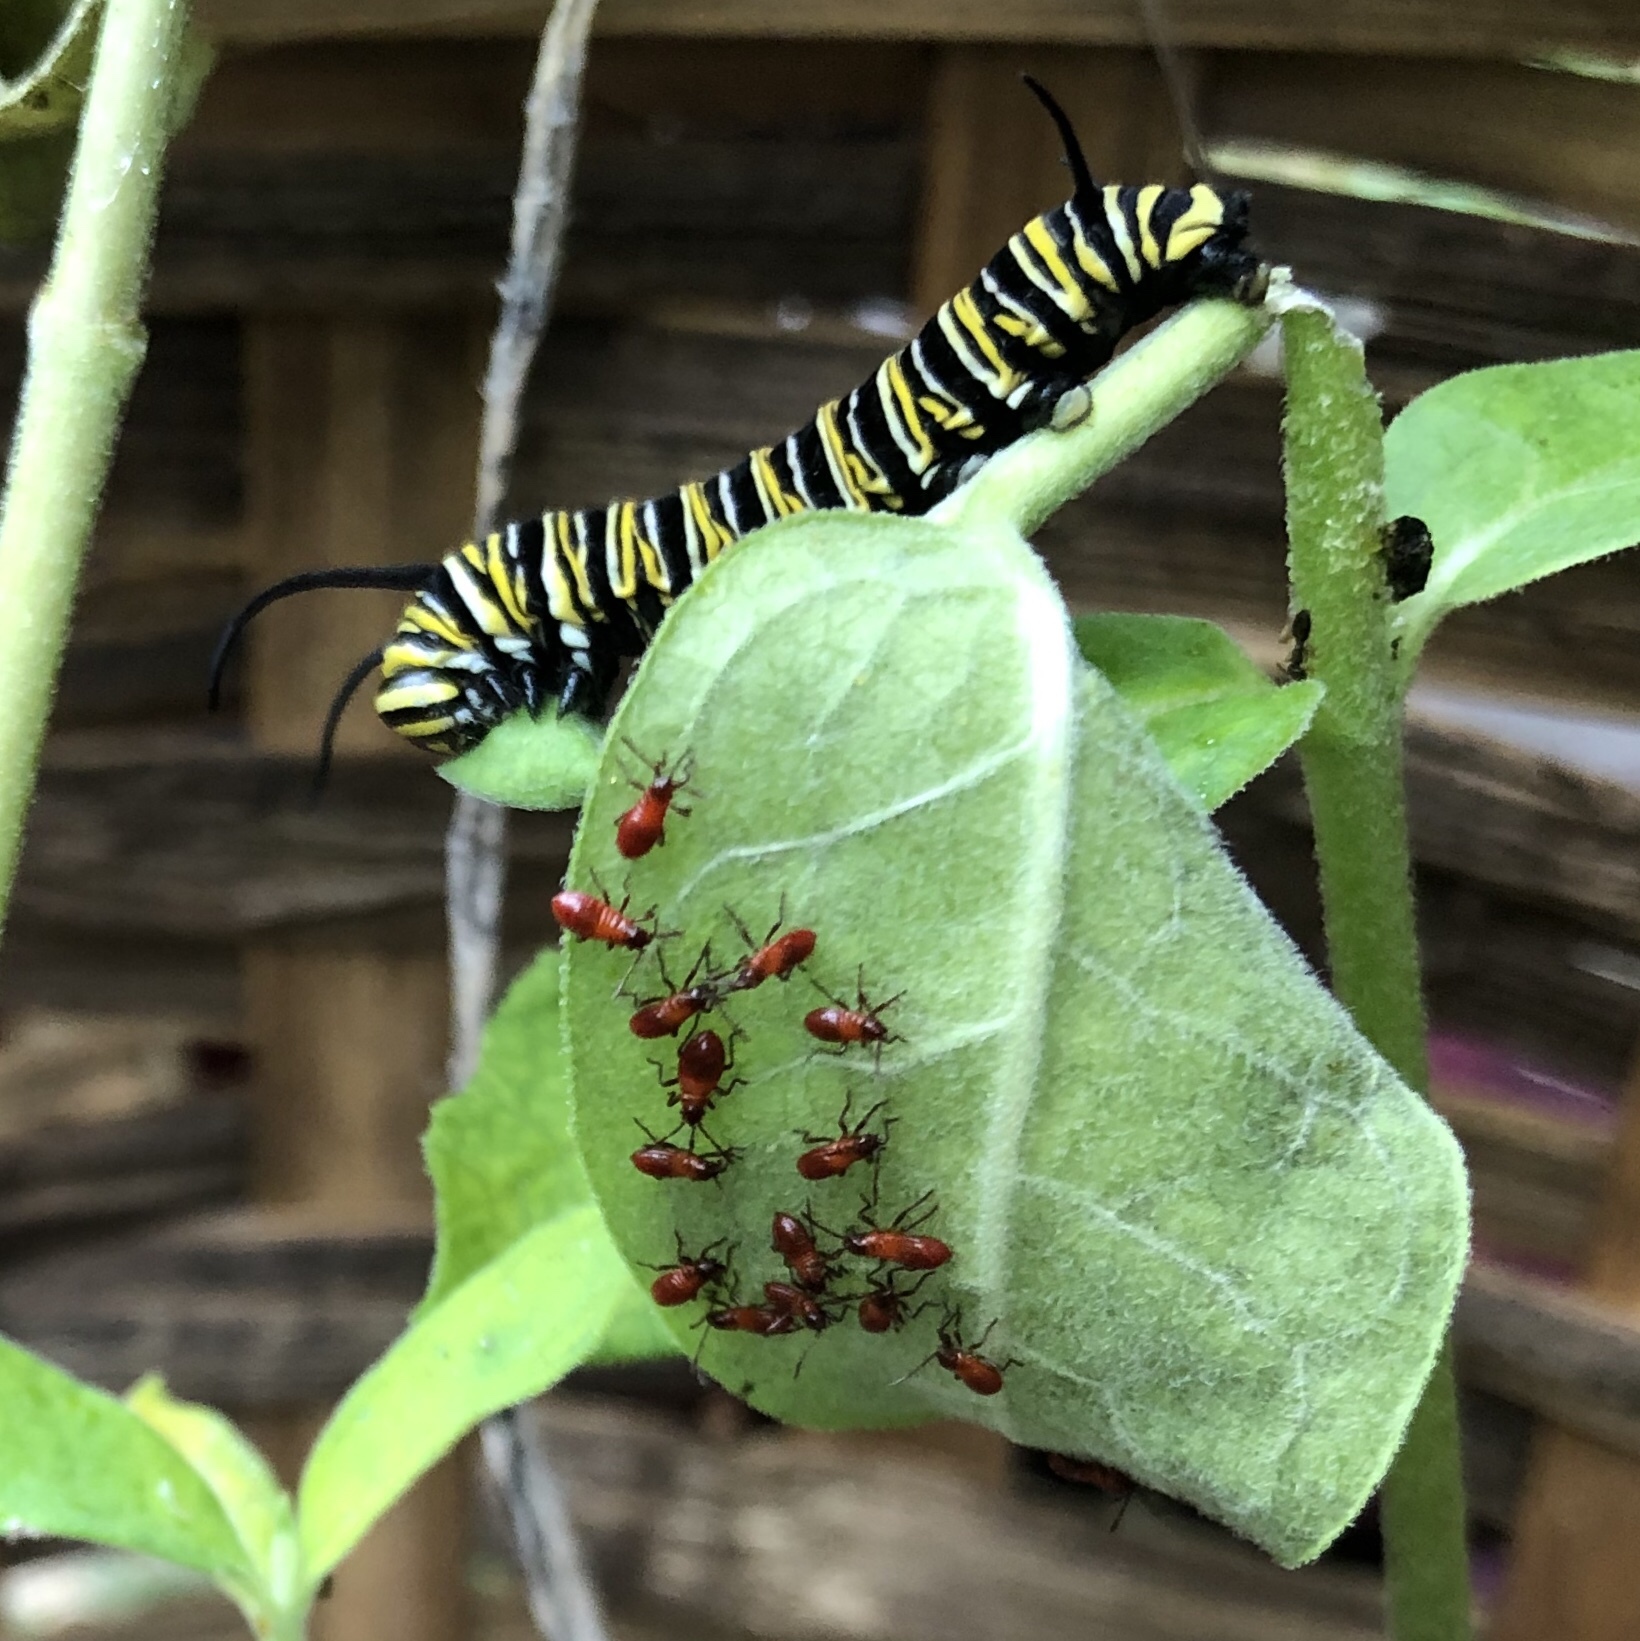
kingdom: Animalia
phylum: Arthropoda
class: Insecta
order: Lepidoptera
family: Nymphalidae
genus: Danaus
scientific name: Danaus plexippus
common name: Monarch
